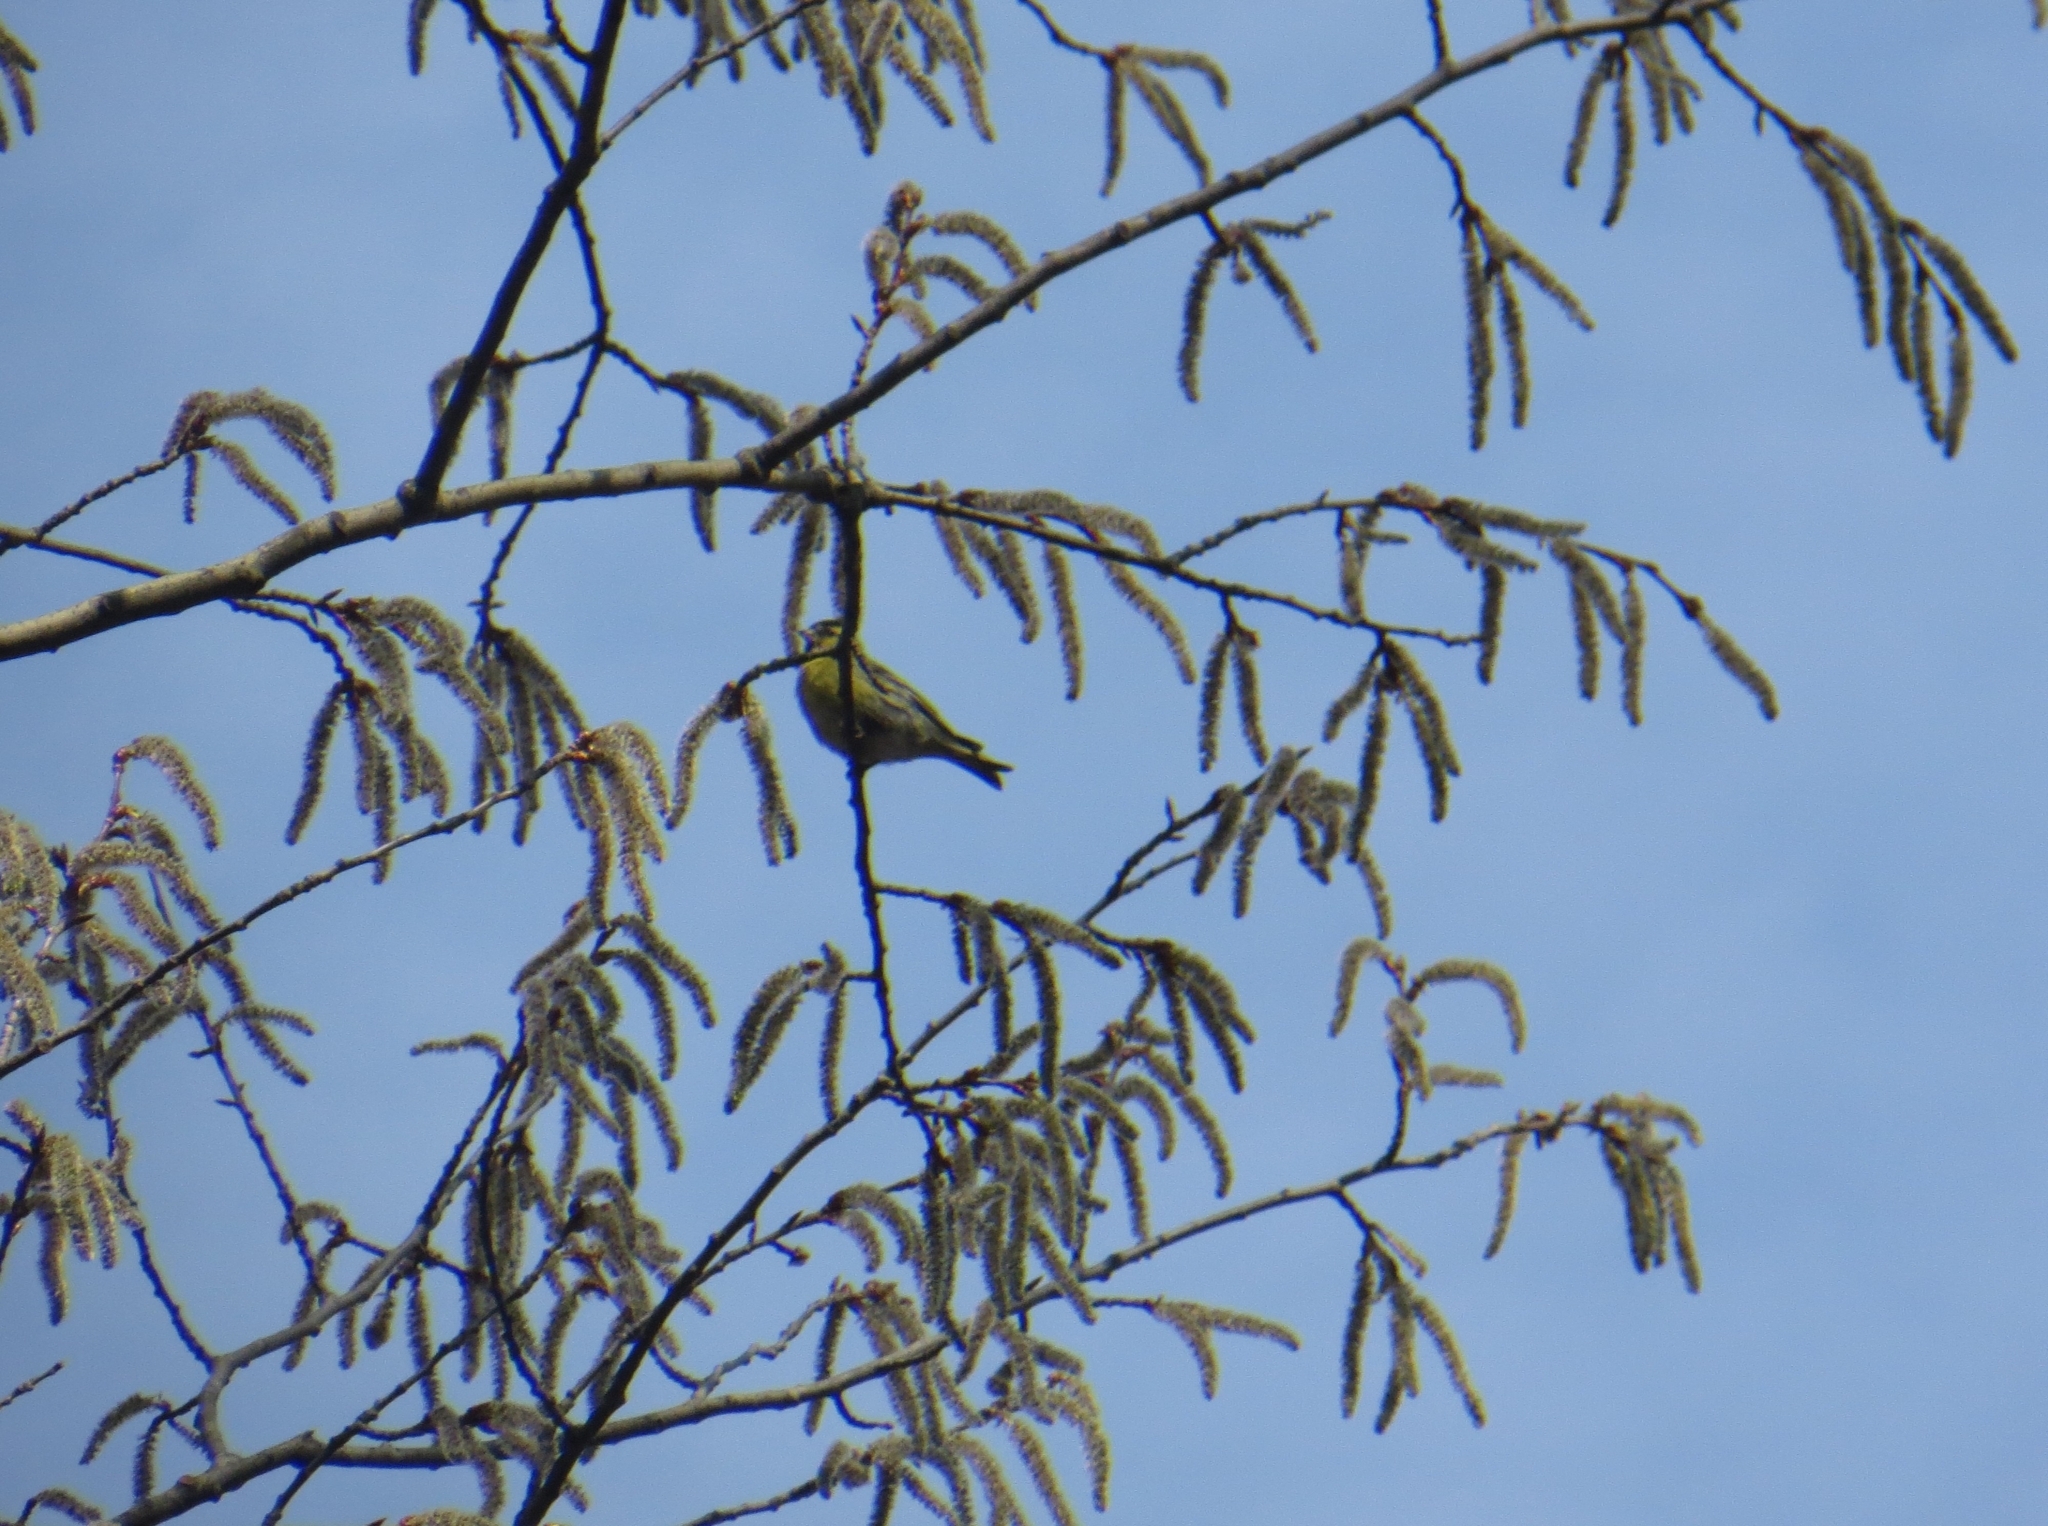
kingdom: Animalia
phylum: Chordata
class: Aves
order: Passeriformes
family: Fringillidae
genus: Spinus
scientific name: Spinus spinus
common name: Eurasian siskin
